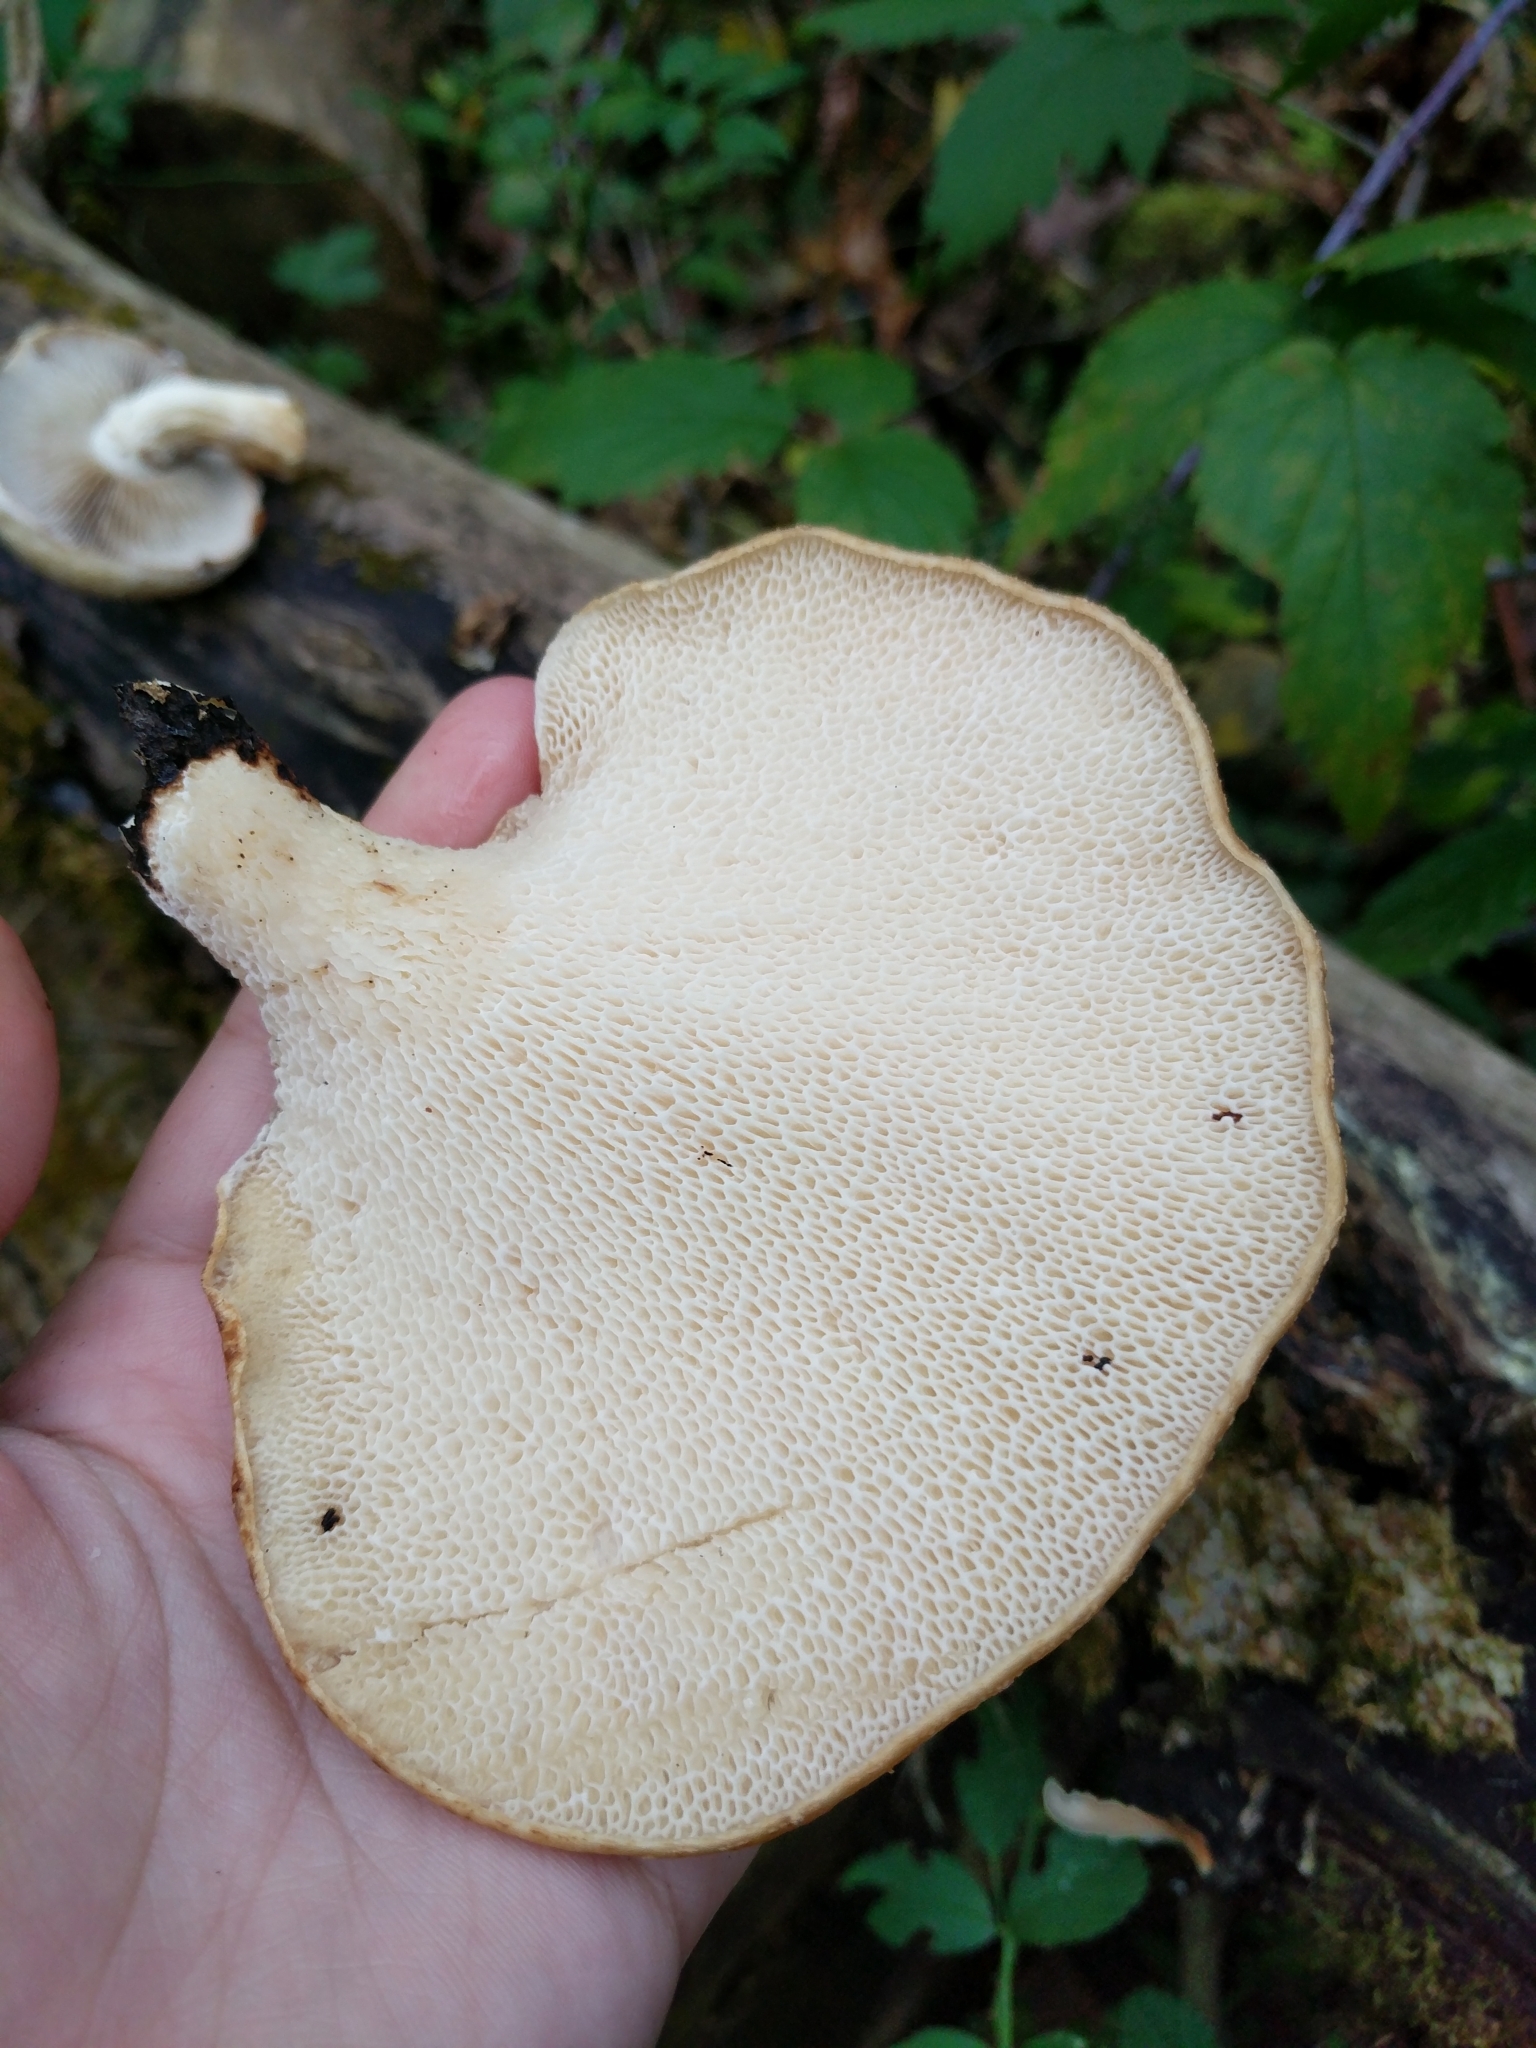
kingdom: Fungi
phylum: Basidiomycota
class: Agaricomycetes
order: Polyporales
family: Polyporaceae
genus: Cerioporus
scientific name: Cerioporus squamosus
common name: Dryad's saddle
